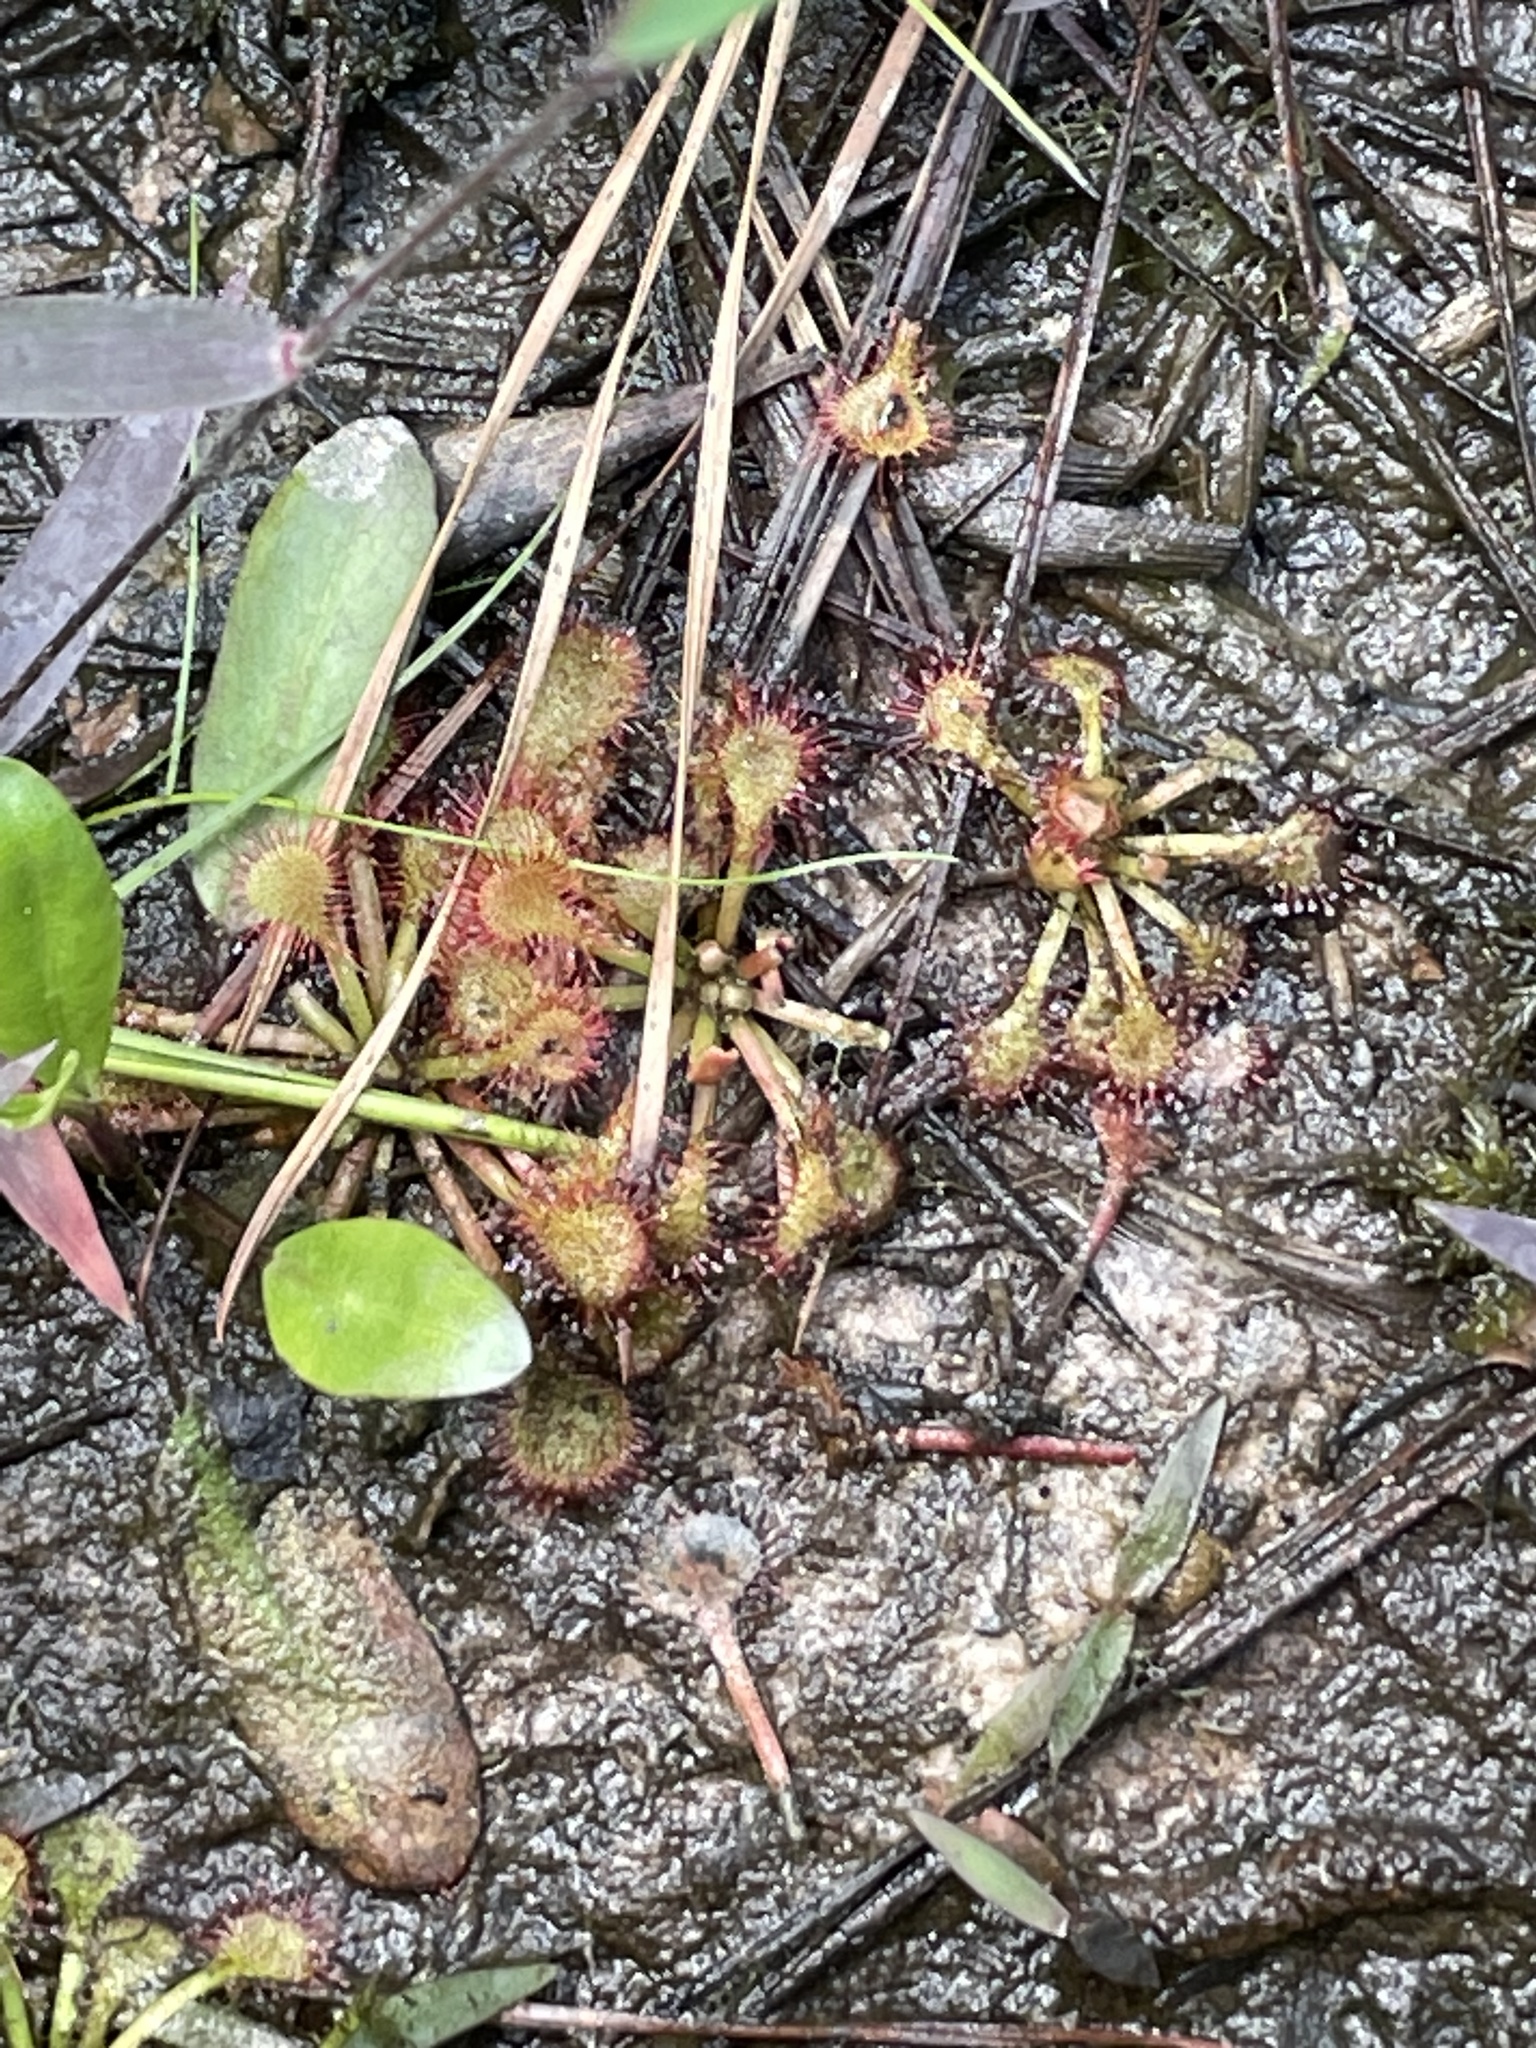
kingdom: Plantae
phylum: Tracheophyta
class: Magnoliopsida
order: Caryophyllales
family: Droseraceae
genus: Drosera
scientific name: Drosera capillaris
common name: Pink sundew
